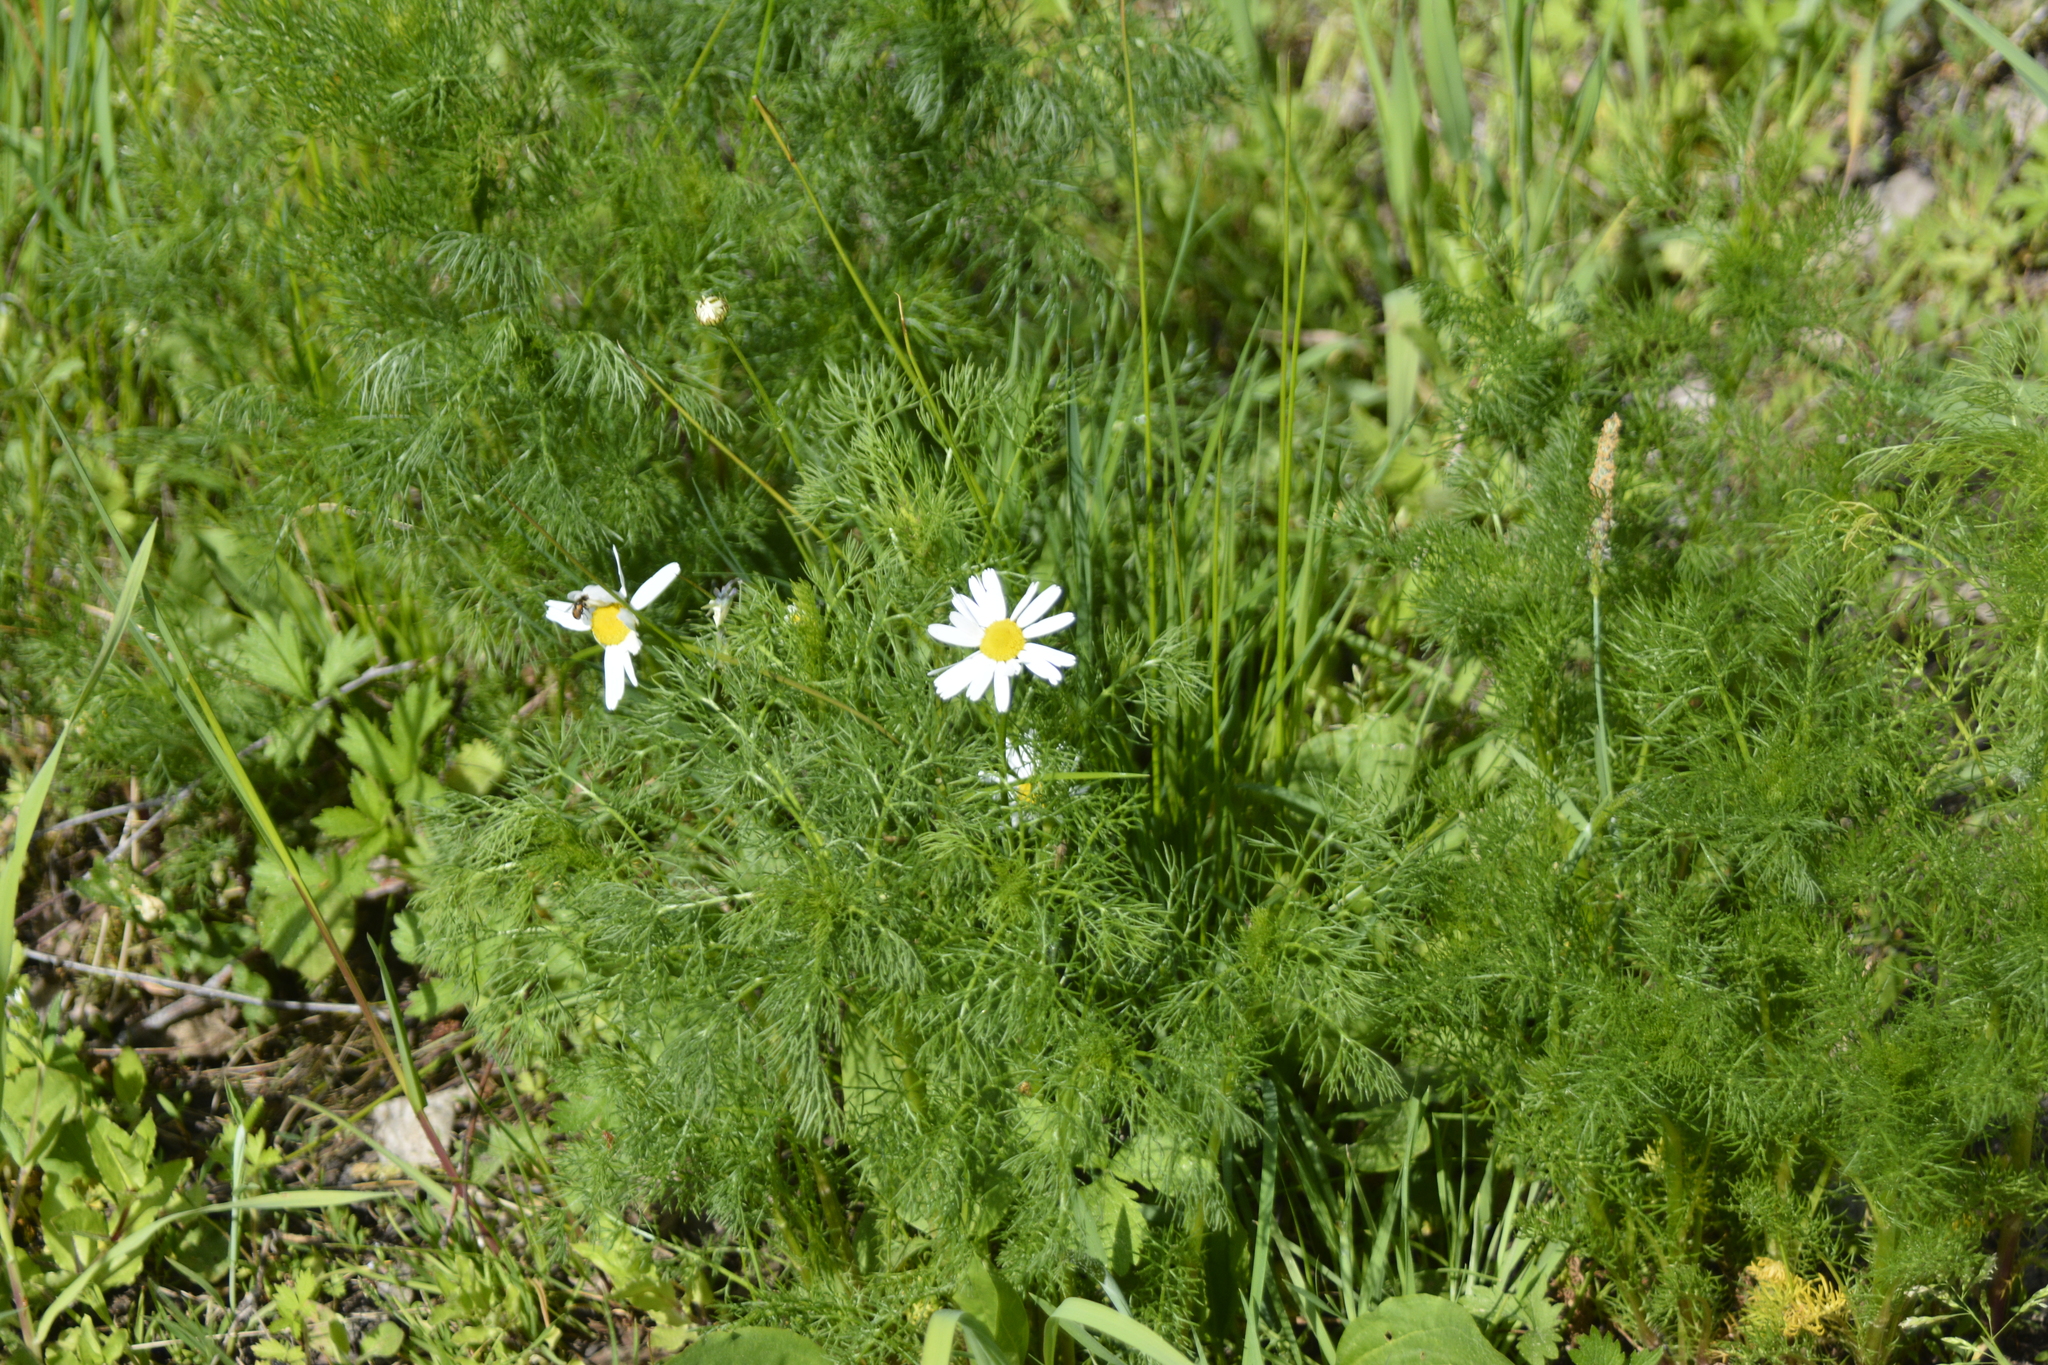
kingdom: Plantae
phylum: Tracheophyta
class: Magnoliopsida
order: Asterales
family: Asteraceae
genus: Tripleurospermum
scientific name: Tripleurospermum inodorum
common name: Scentless mayweed
